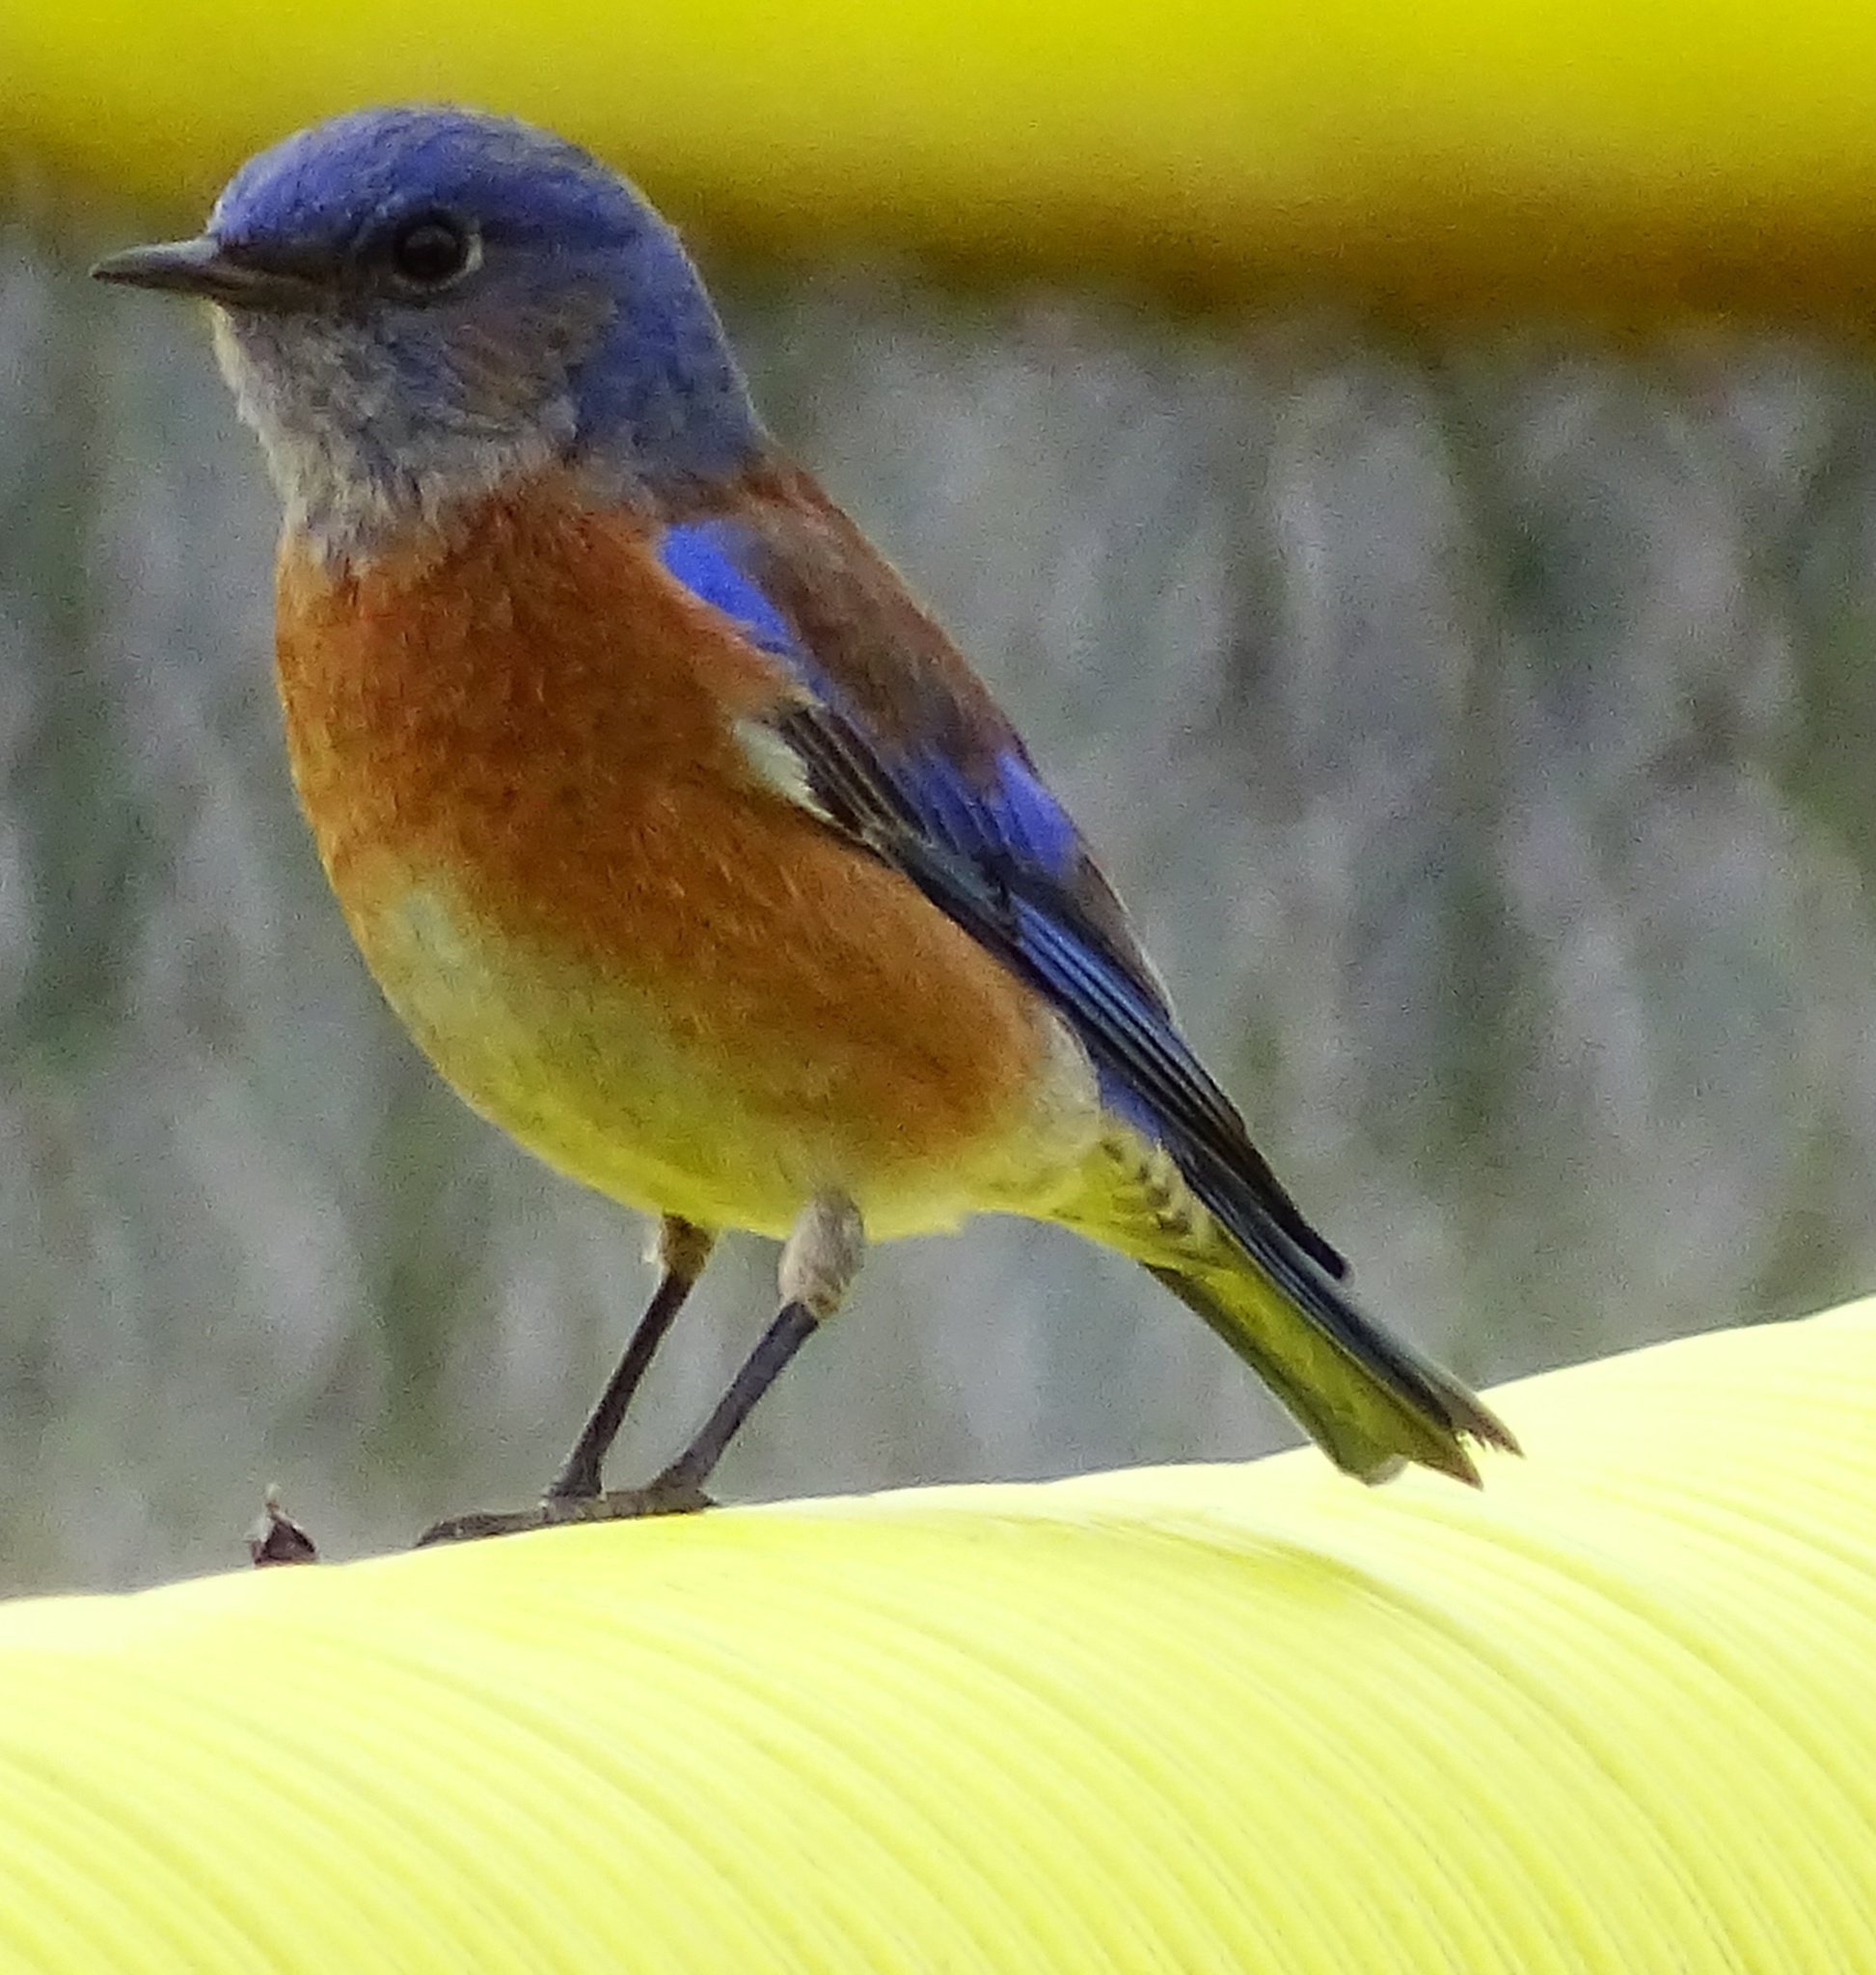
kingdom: Animalia
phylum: Chordata
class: Aves
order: Passeriformes
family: Turdidae
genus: Sialia
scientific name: Sialia mexicana
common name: Western bluebird
